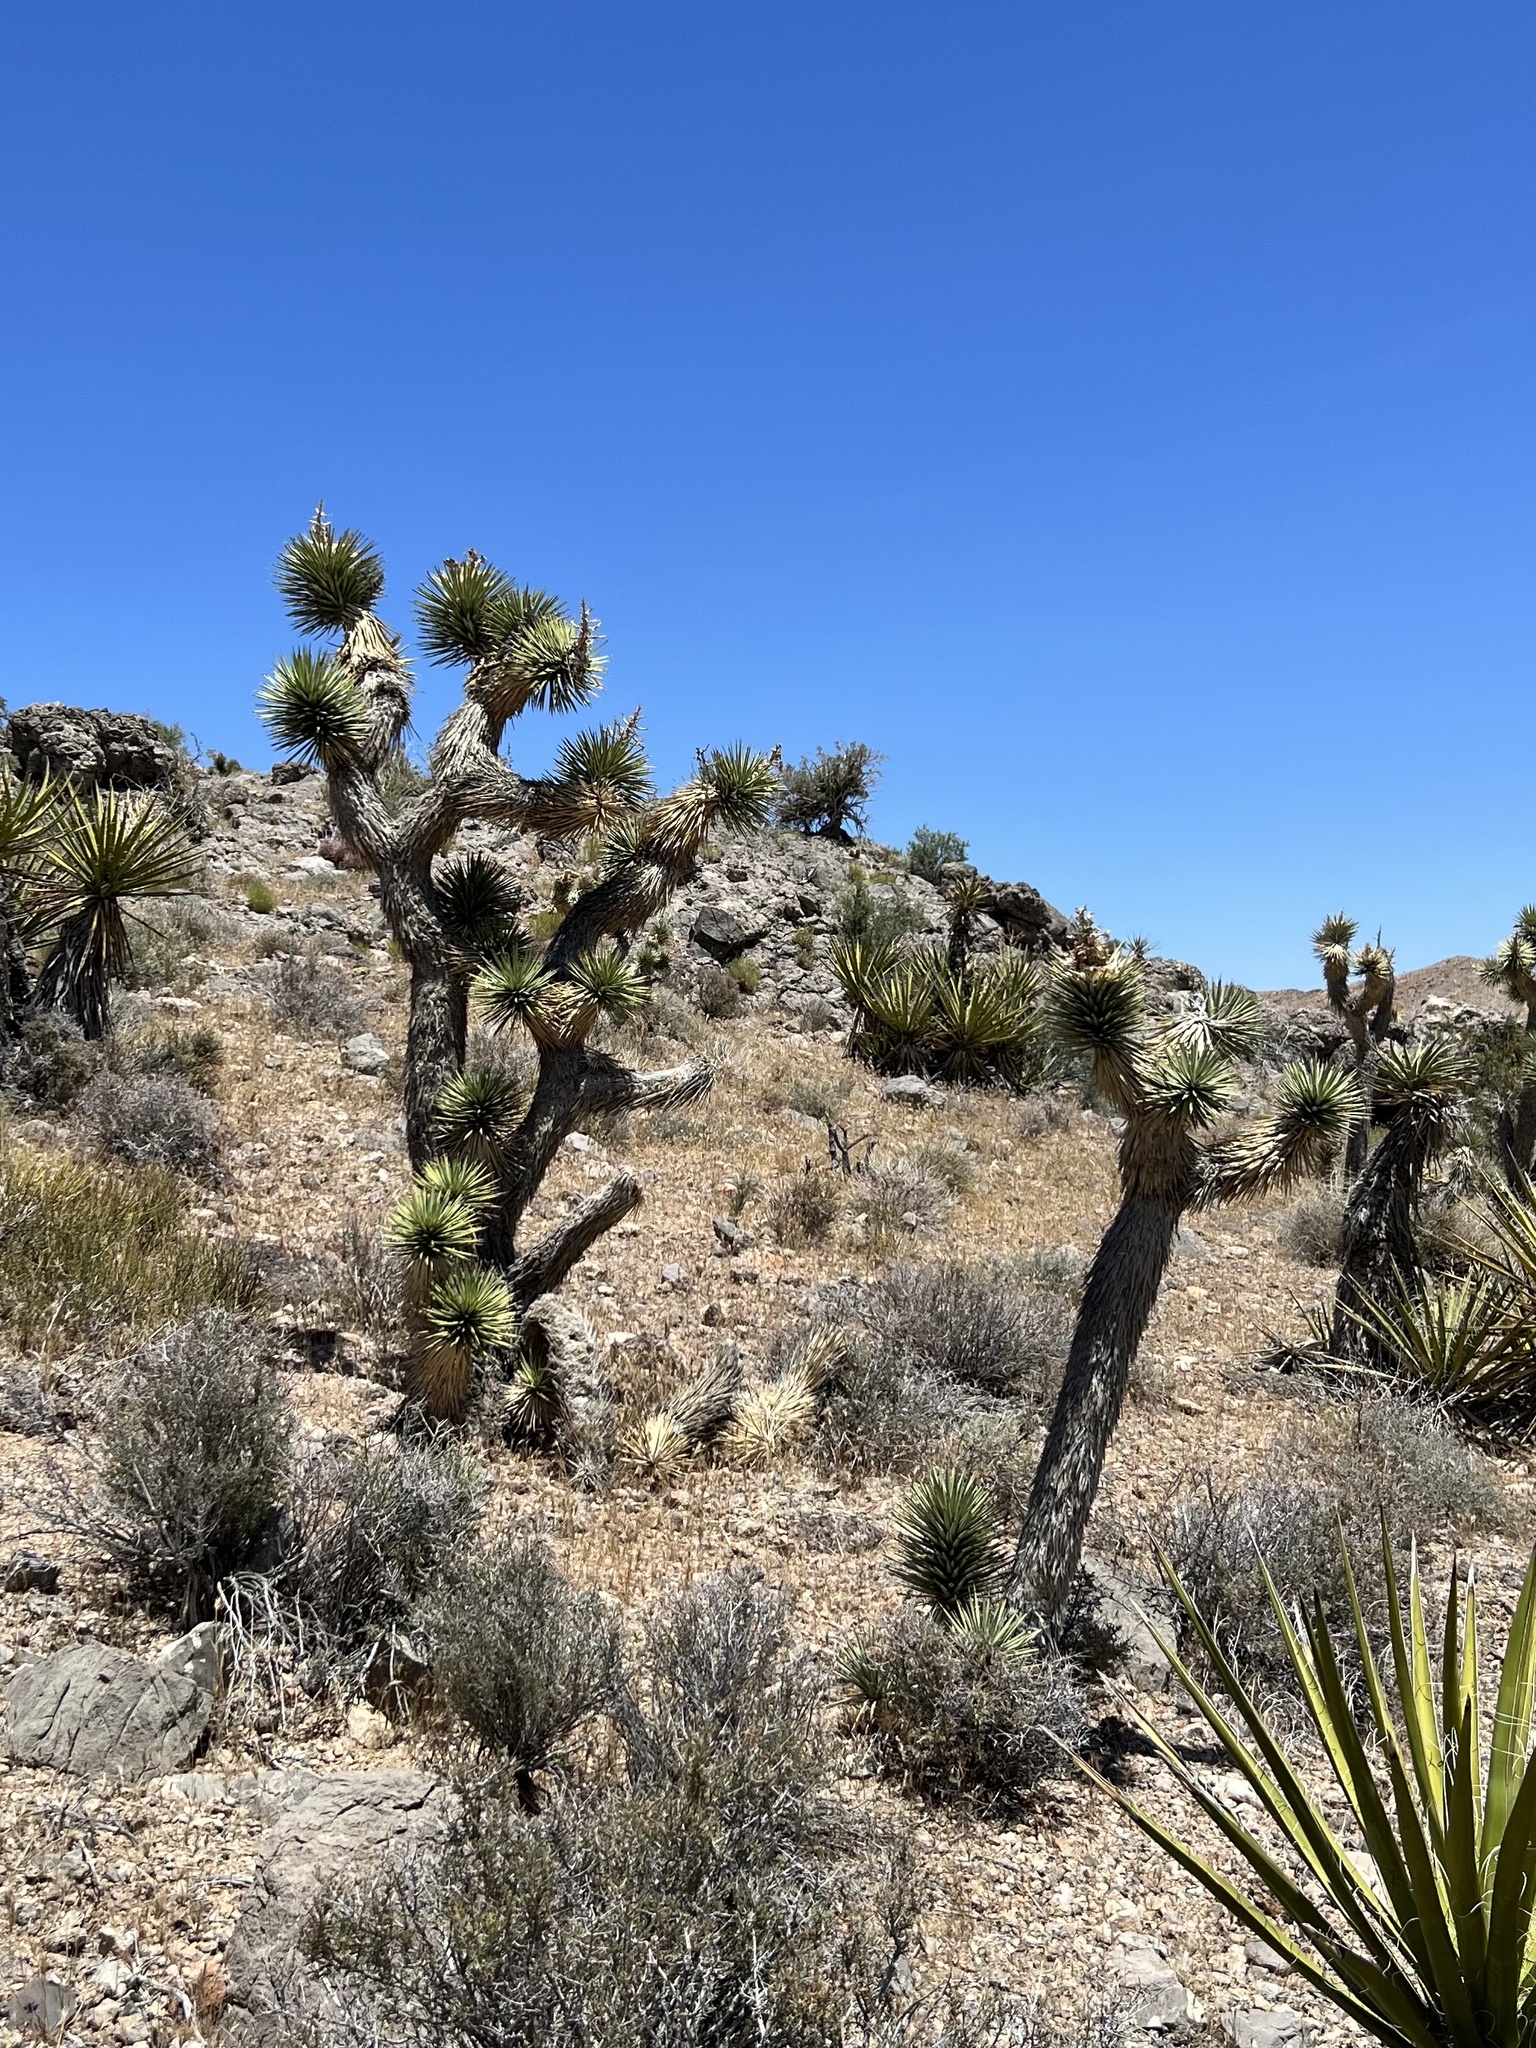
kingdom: Plantae
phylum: Tracheophyta
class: Liliopsida
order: Asparagales
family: Asparagaceae
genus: Yucca
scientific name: Yucca brevifolia
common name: Joshua tree
